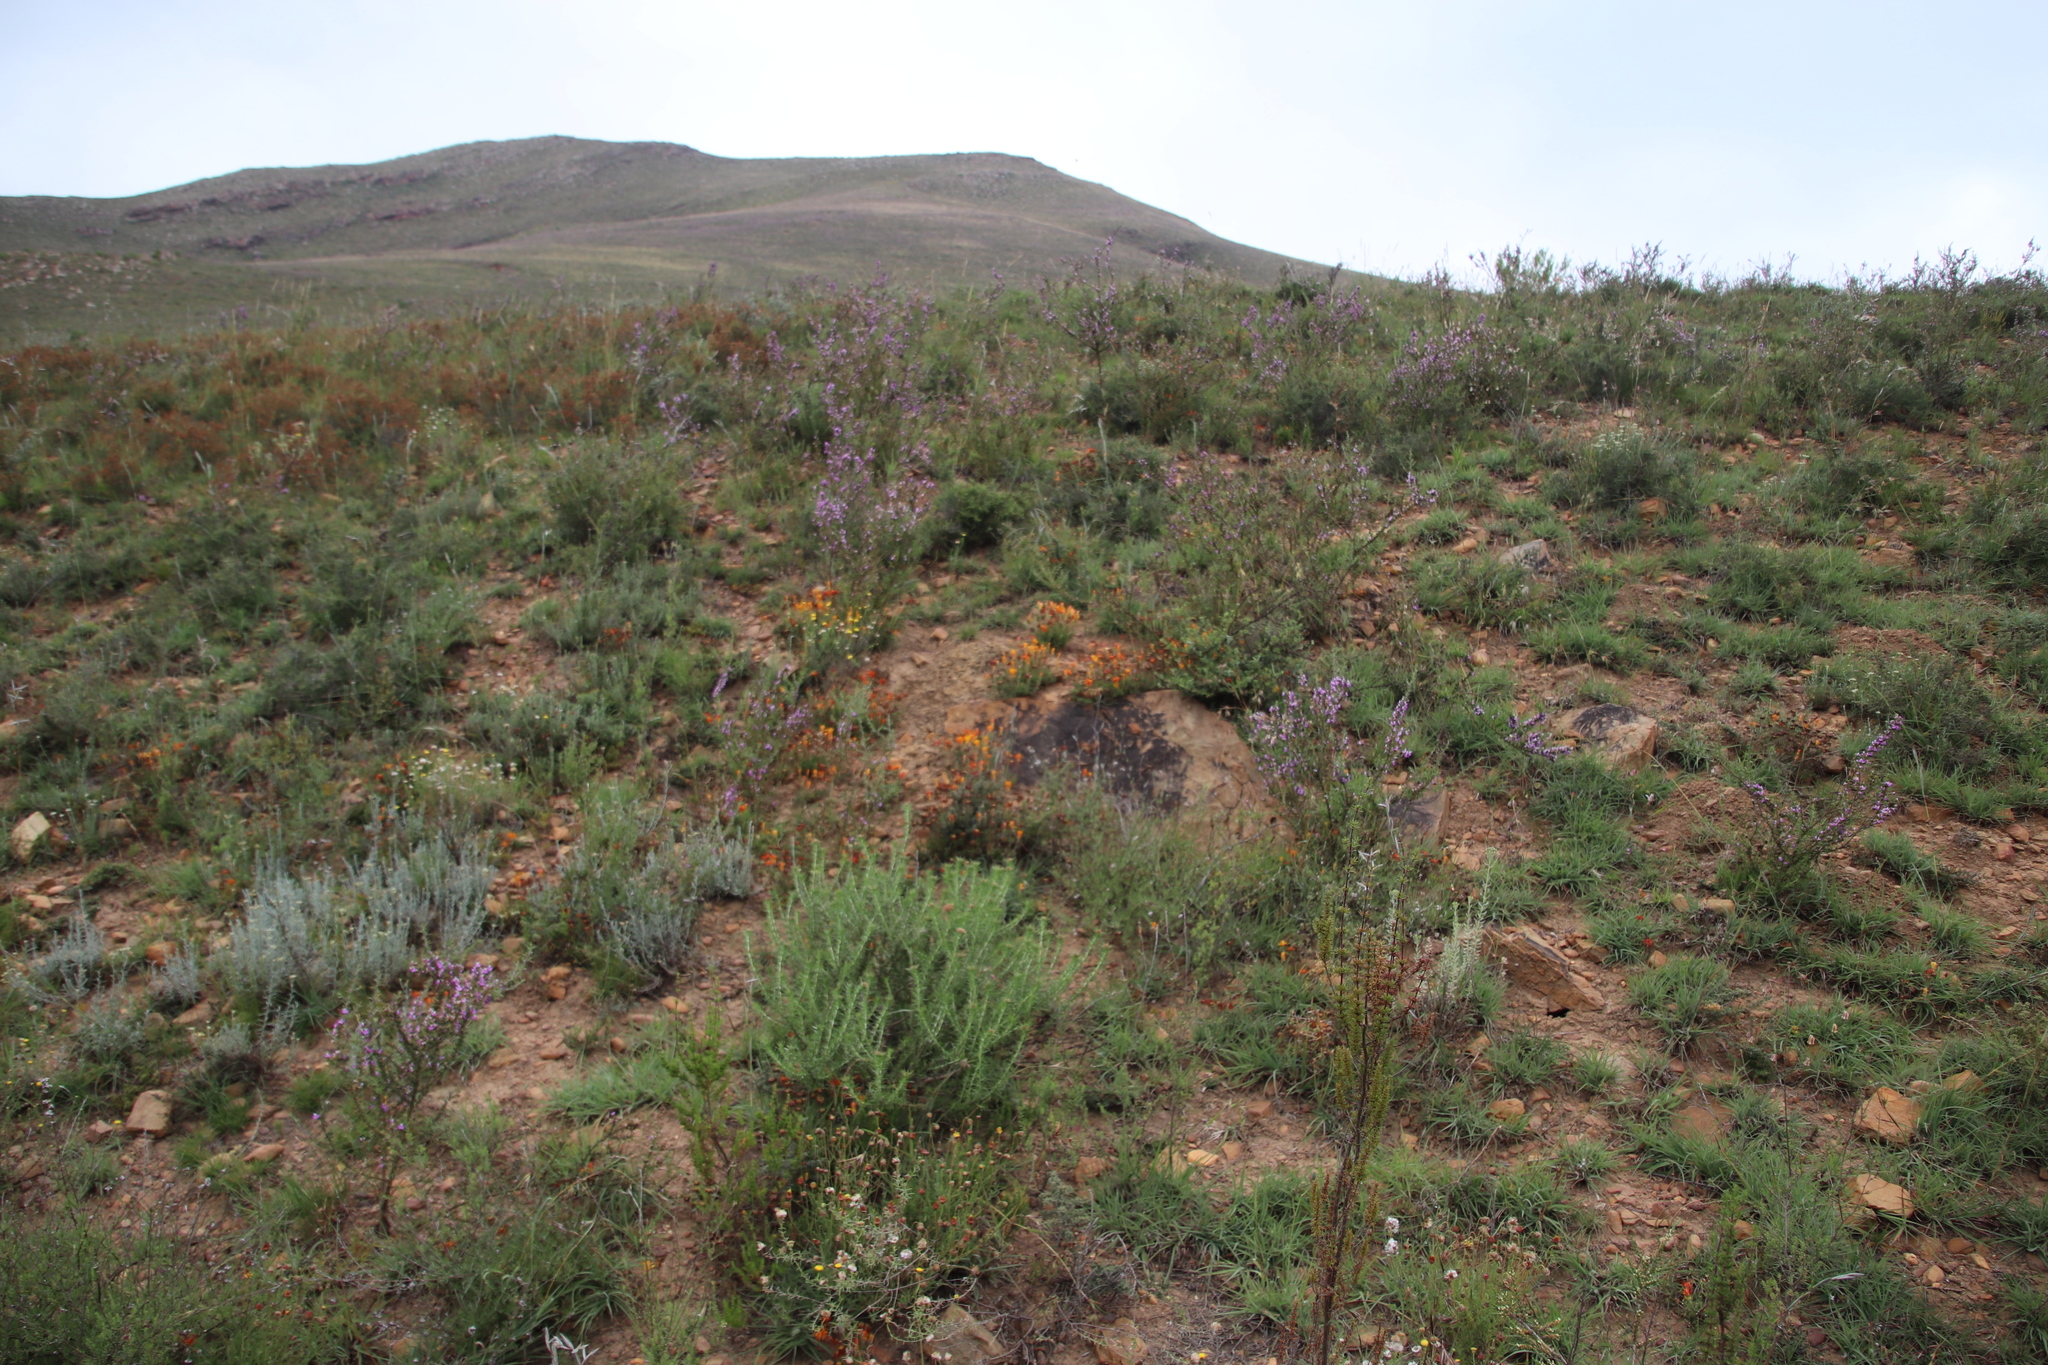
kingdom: Plantae
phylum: Tracheophyta
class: Liliopsida
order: Asparagales
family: Asparagaceae
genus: Ornithogalum
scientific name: Ornithogalum dubium
